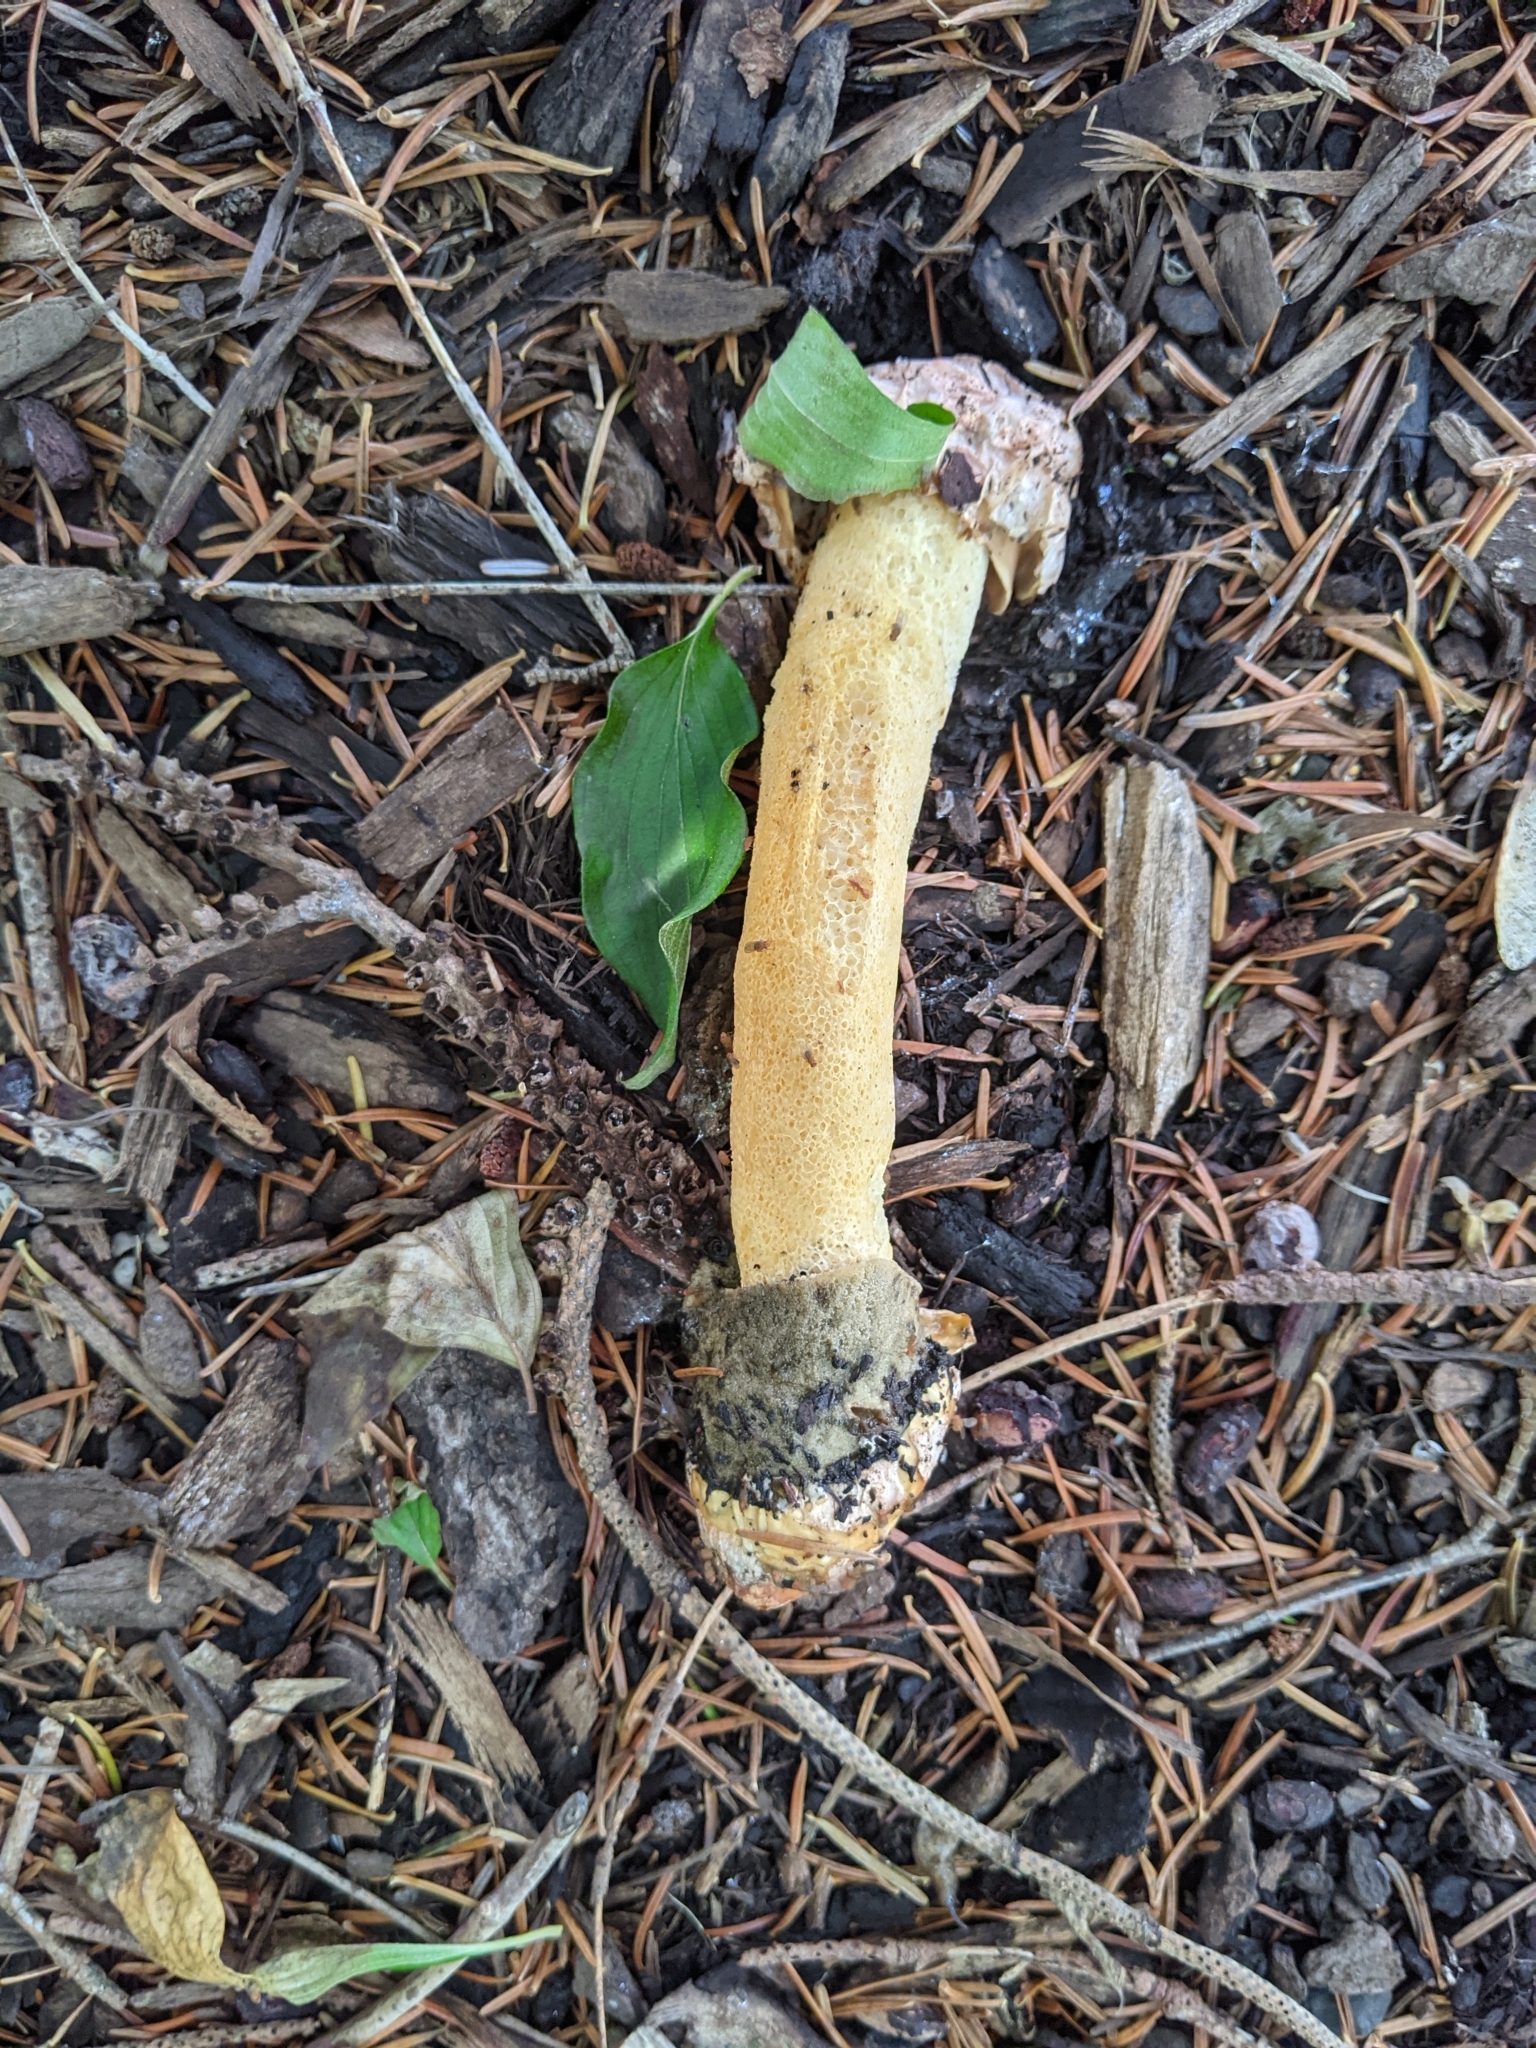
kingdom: Fungi
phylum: Basidiomycota
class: Agaricomycetes
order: Phallales
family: Phallaceae
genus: Phallus
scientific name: Phallus ravenelii
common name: Ravenel's stinkhorn
